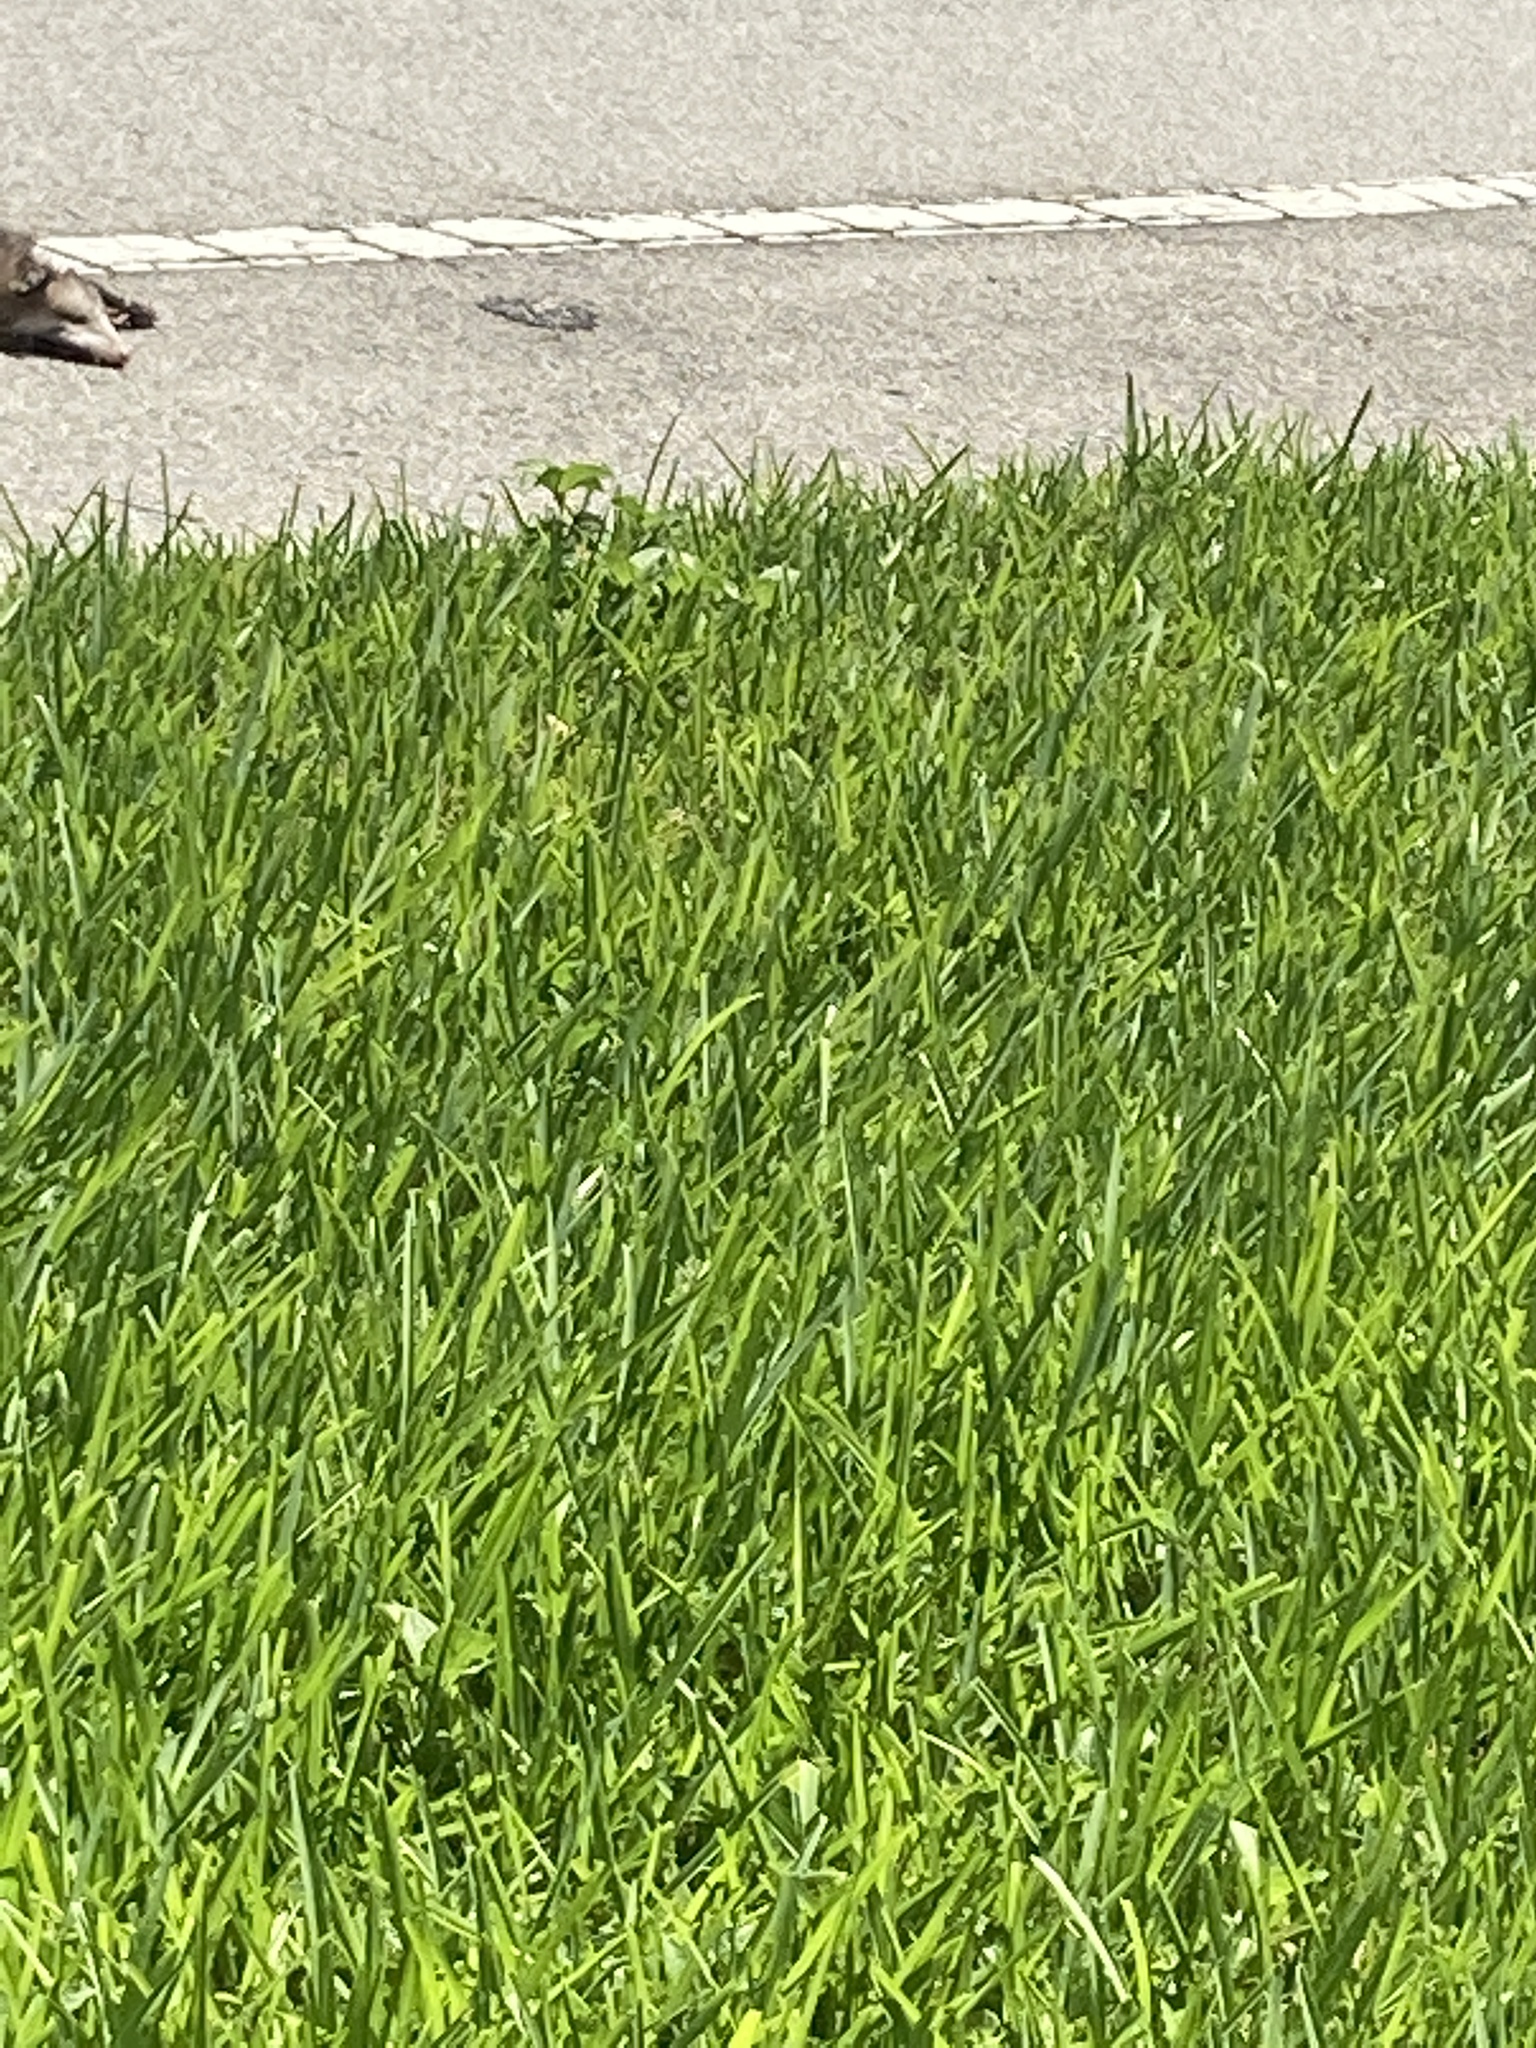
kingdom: Animalia
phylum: Chordata
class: Mammalia
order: Didelphimorphia
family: Didelphidae
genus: Didelphis
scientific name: Didelphis virginiana
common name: Virginia opossum
